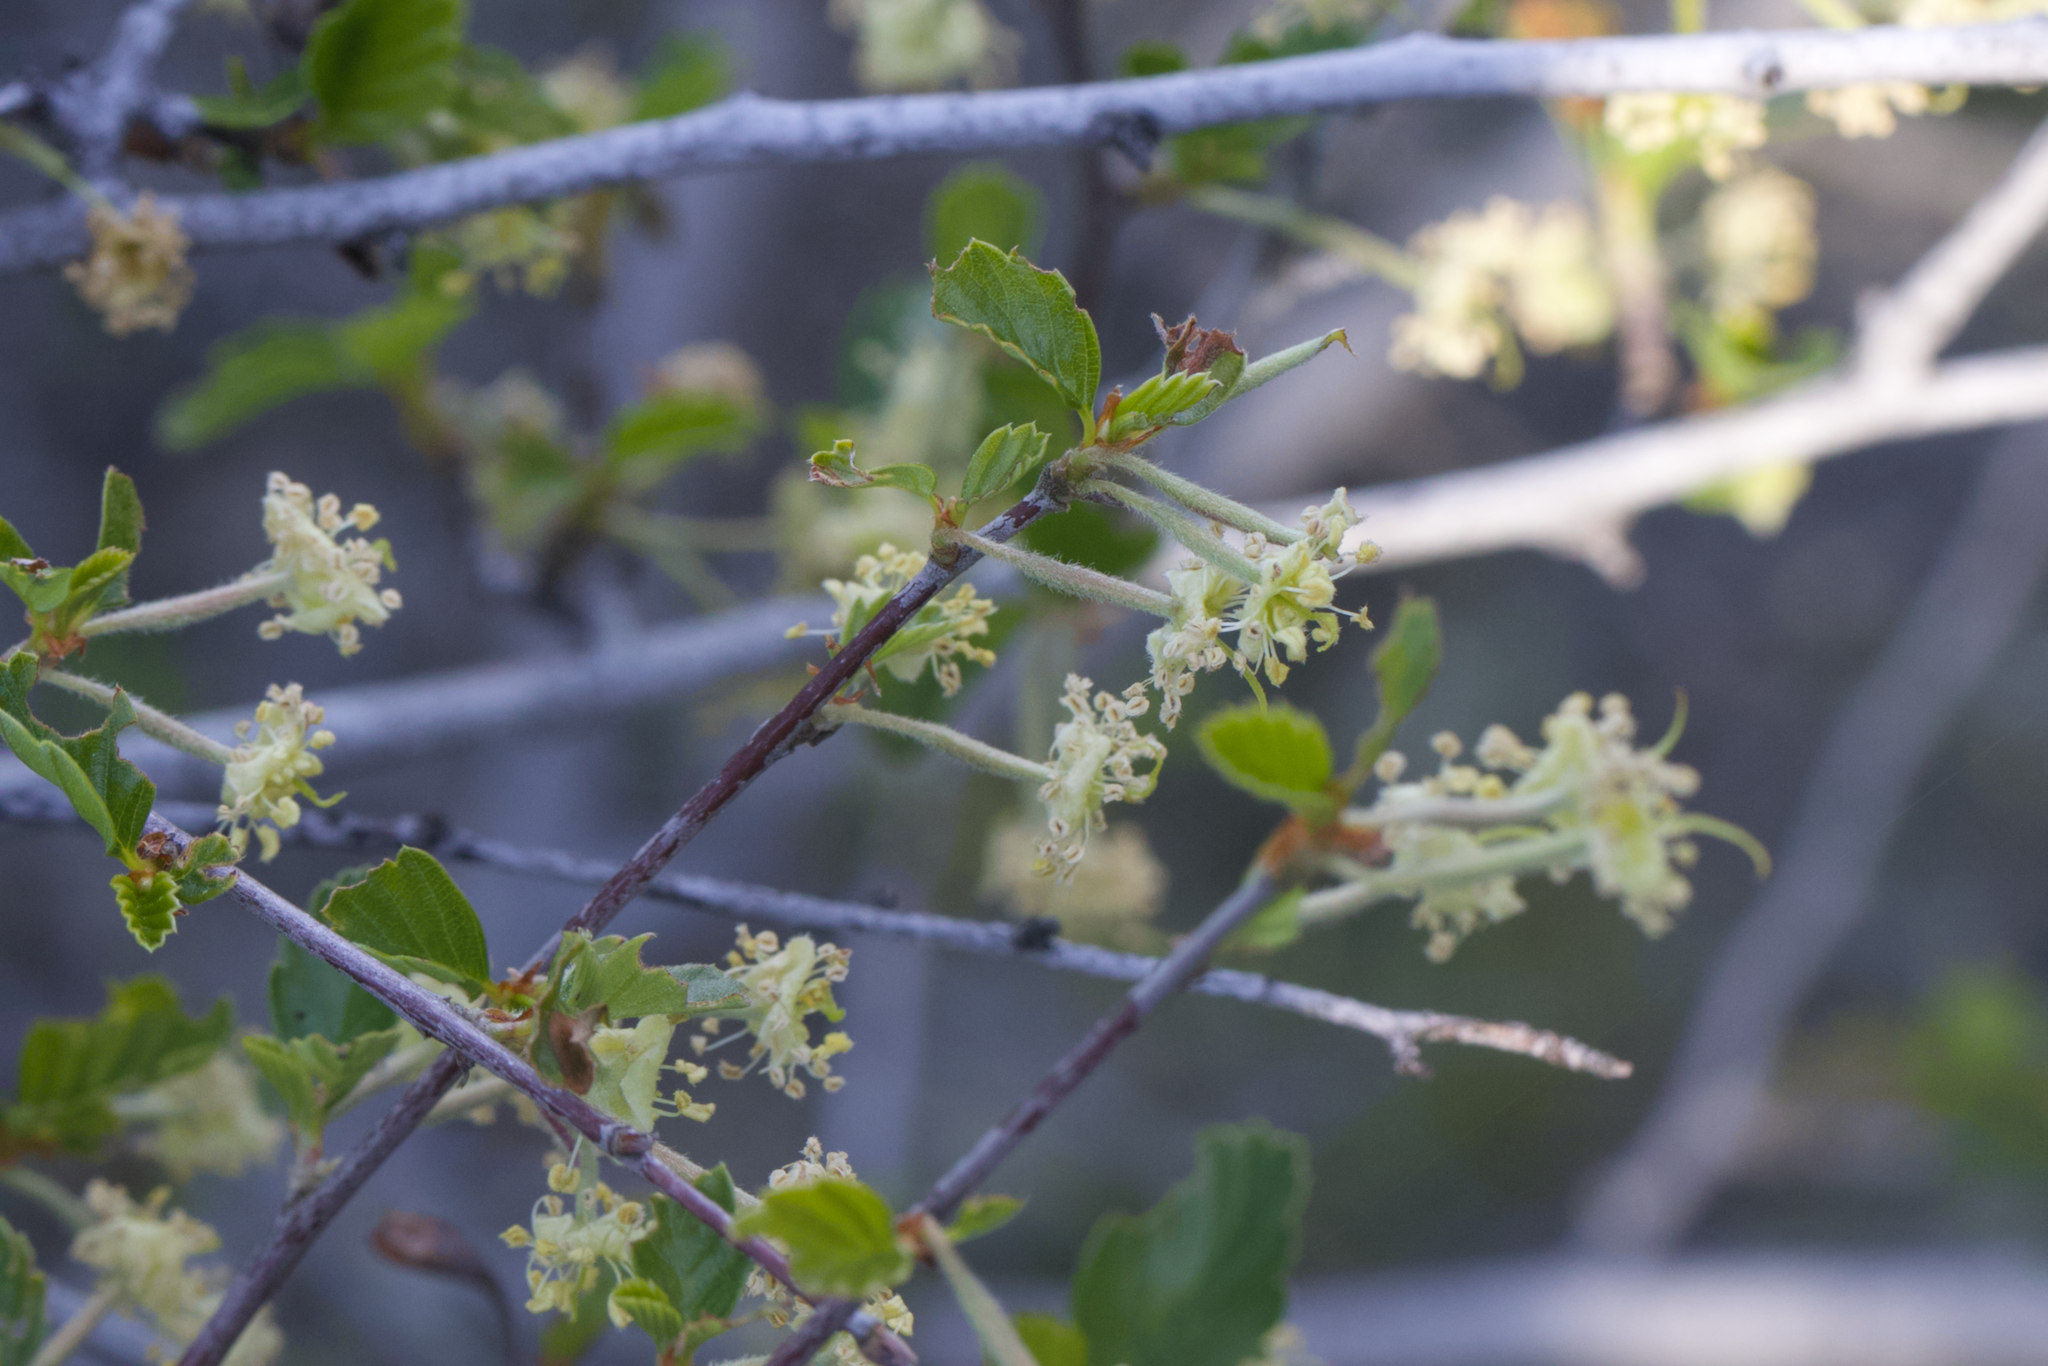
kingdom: Plantae
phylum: Tracheophyta
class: Magnoliopsida
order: Rosales
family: Rosaceae
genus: Cercocarpus
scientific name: Cercocarpus betuloides
